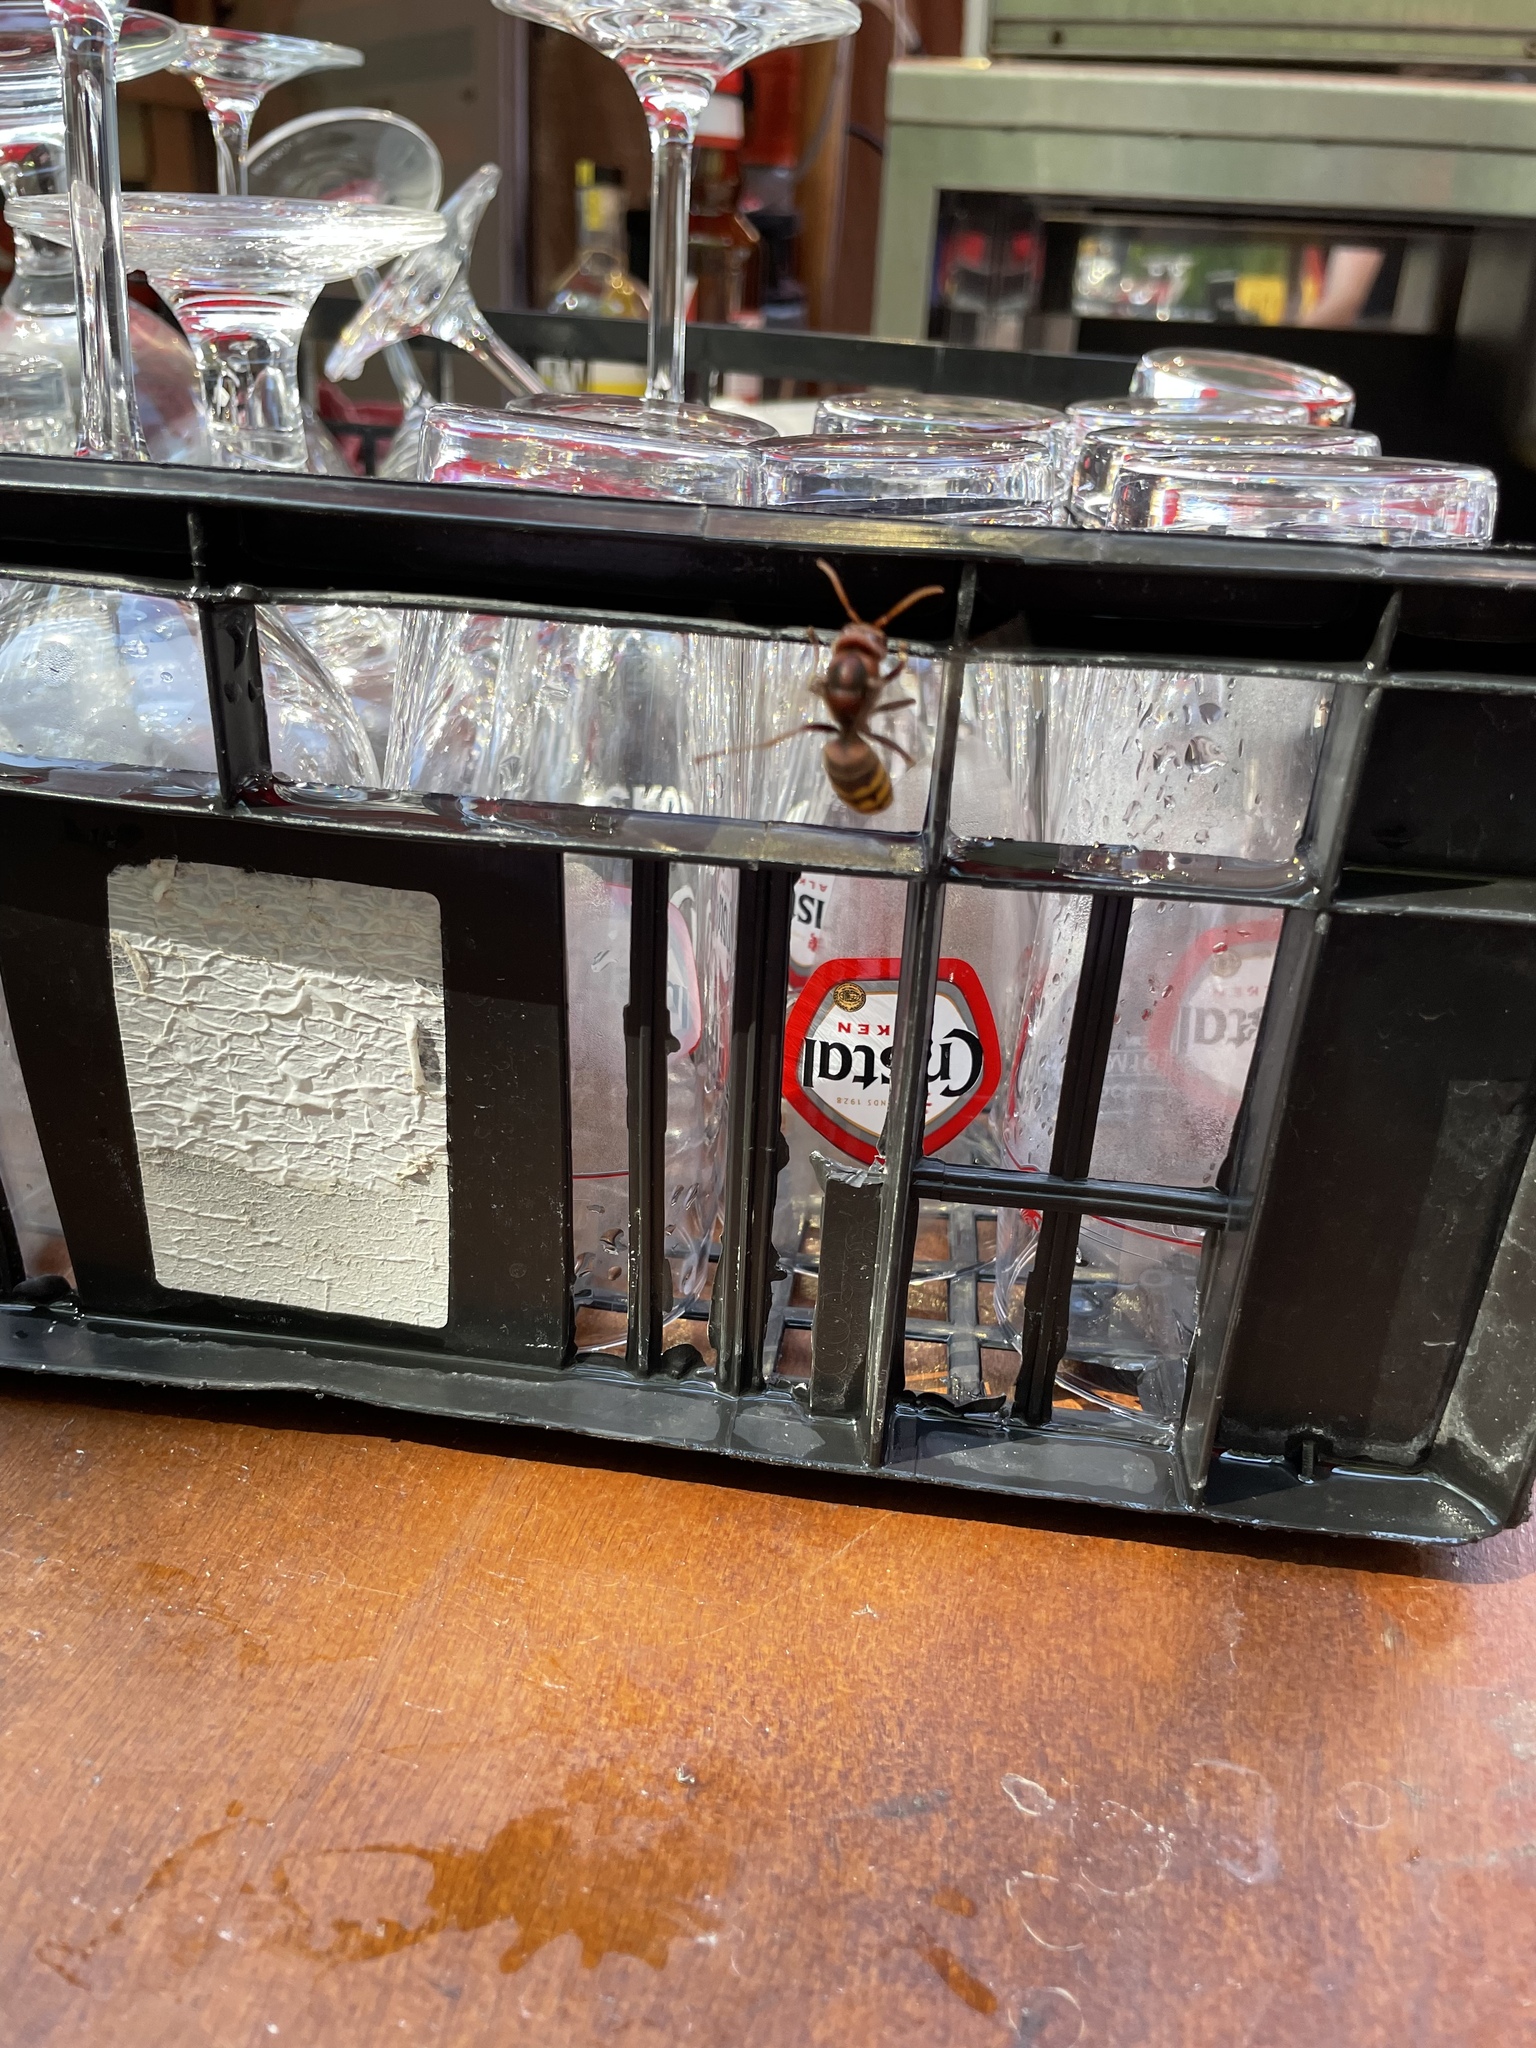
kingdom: Animalia
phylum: Arthropoda
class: Insecta
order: Hymenoptera
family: Vespidae
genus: Vespa
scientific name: Vespa crabro
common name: Hornet
